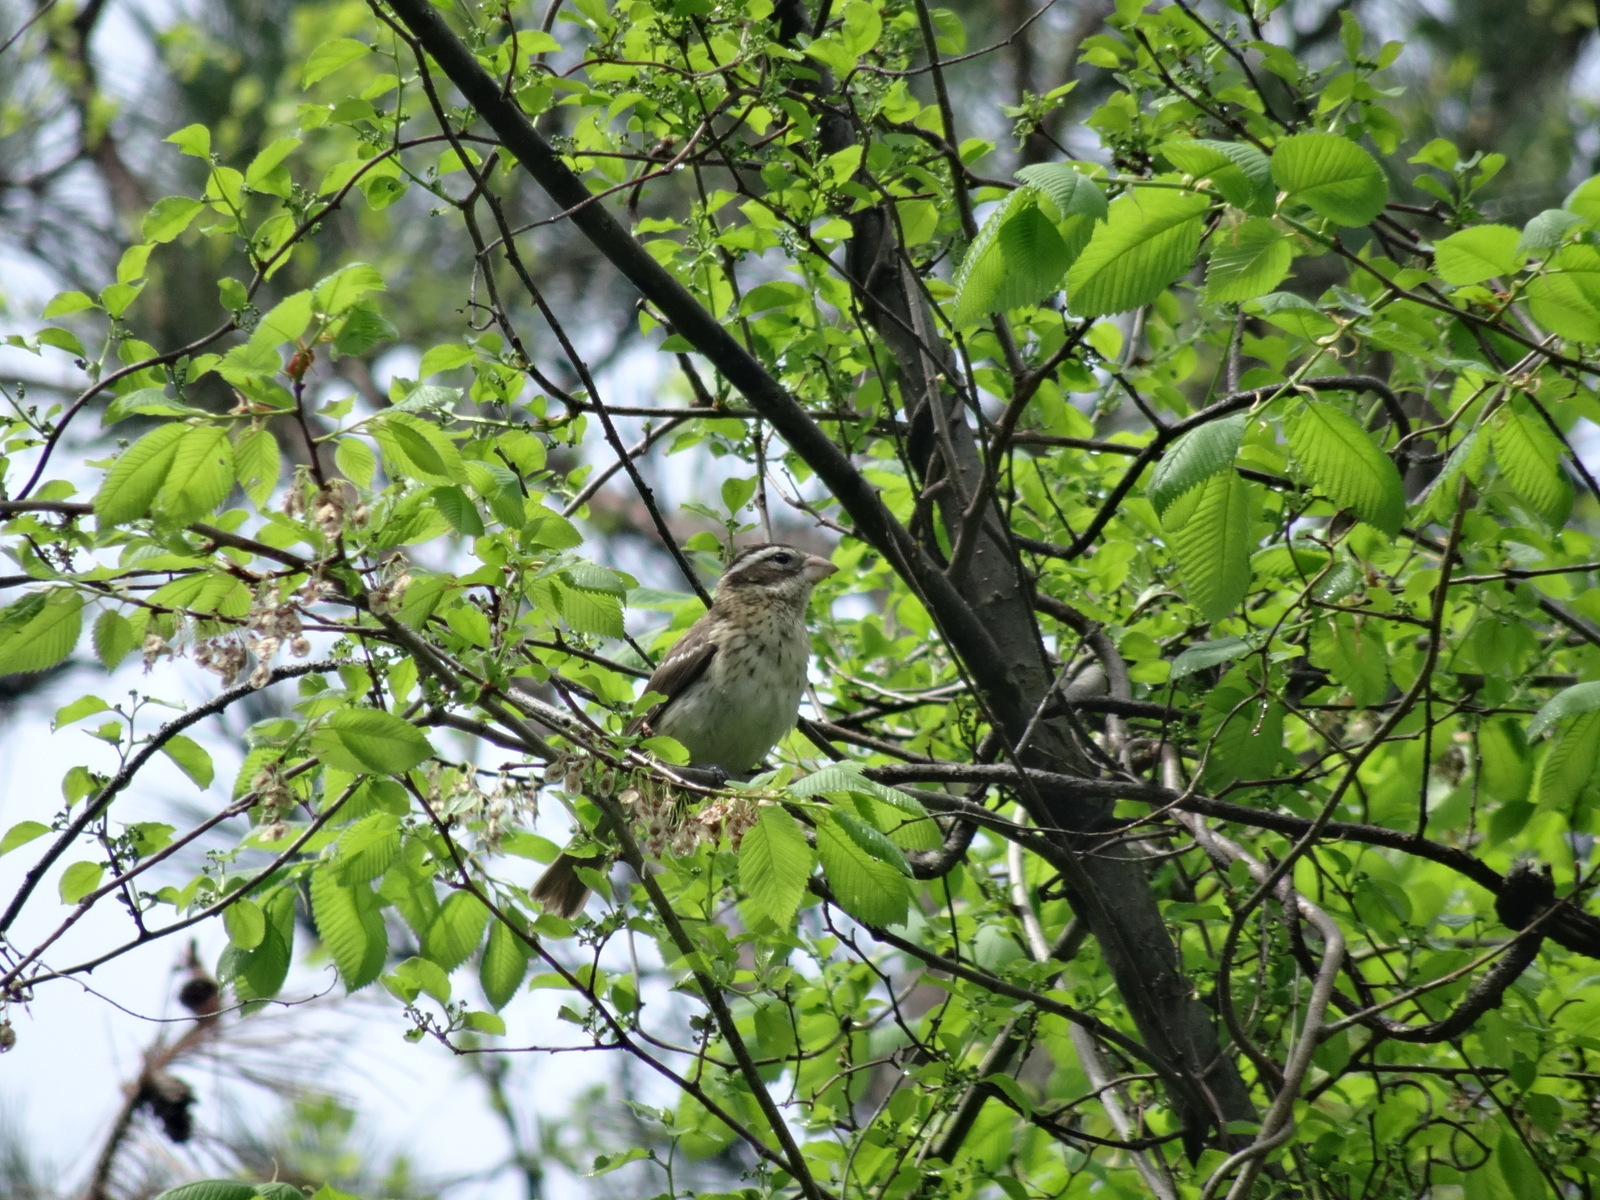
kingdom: Animalia
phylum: Chordata
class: Aves
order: Passeriformes
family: Cardinalidae
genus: Pheucticus
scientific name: Pheucticus ludovicianus
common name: Rose-breasted grosbeak
